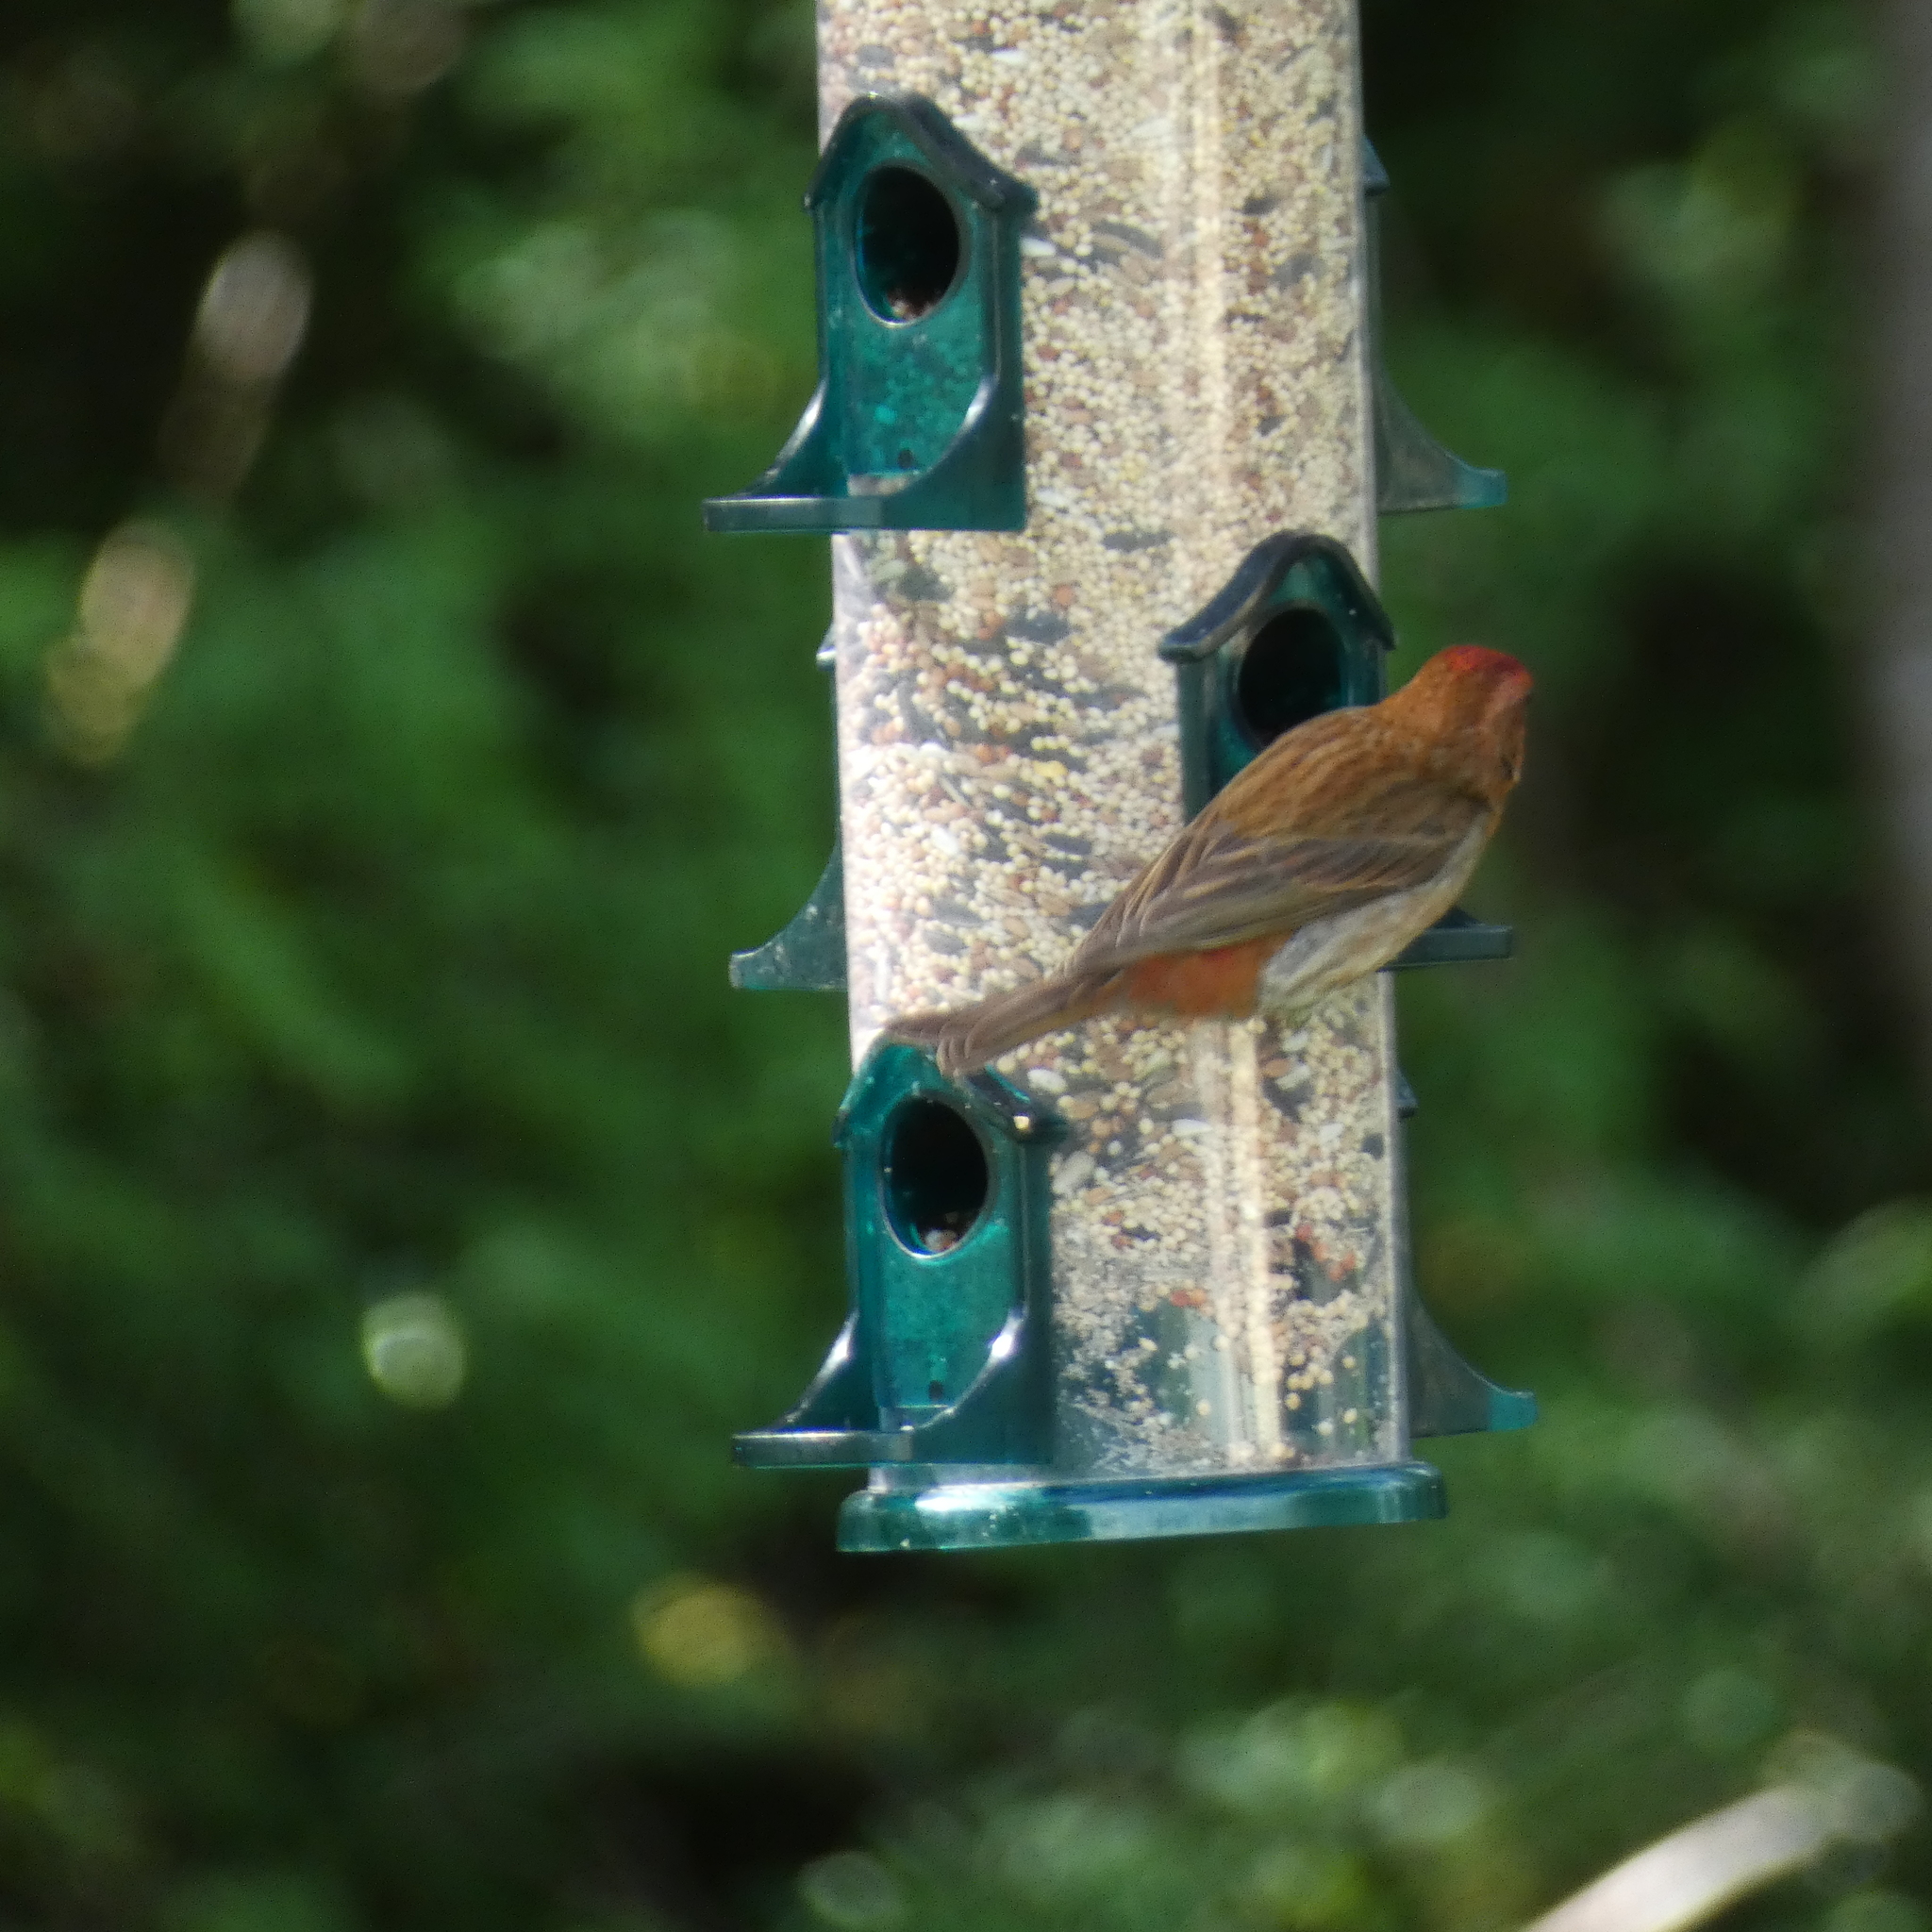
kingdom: Animalia
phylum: Chordata
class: Aves
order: Passeriformes
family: Fringillidae
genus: Haemorhous
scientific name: Haemorhous mexicanus
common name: House finch
